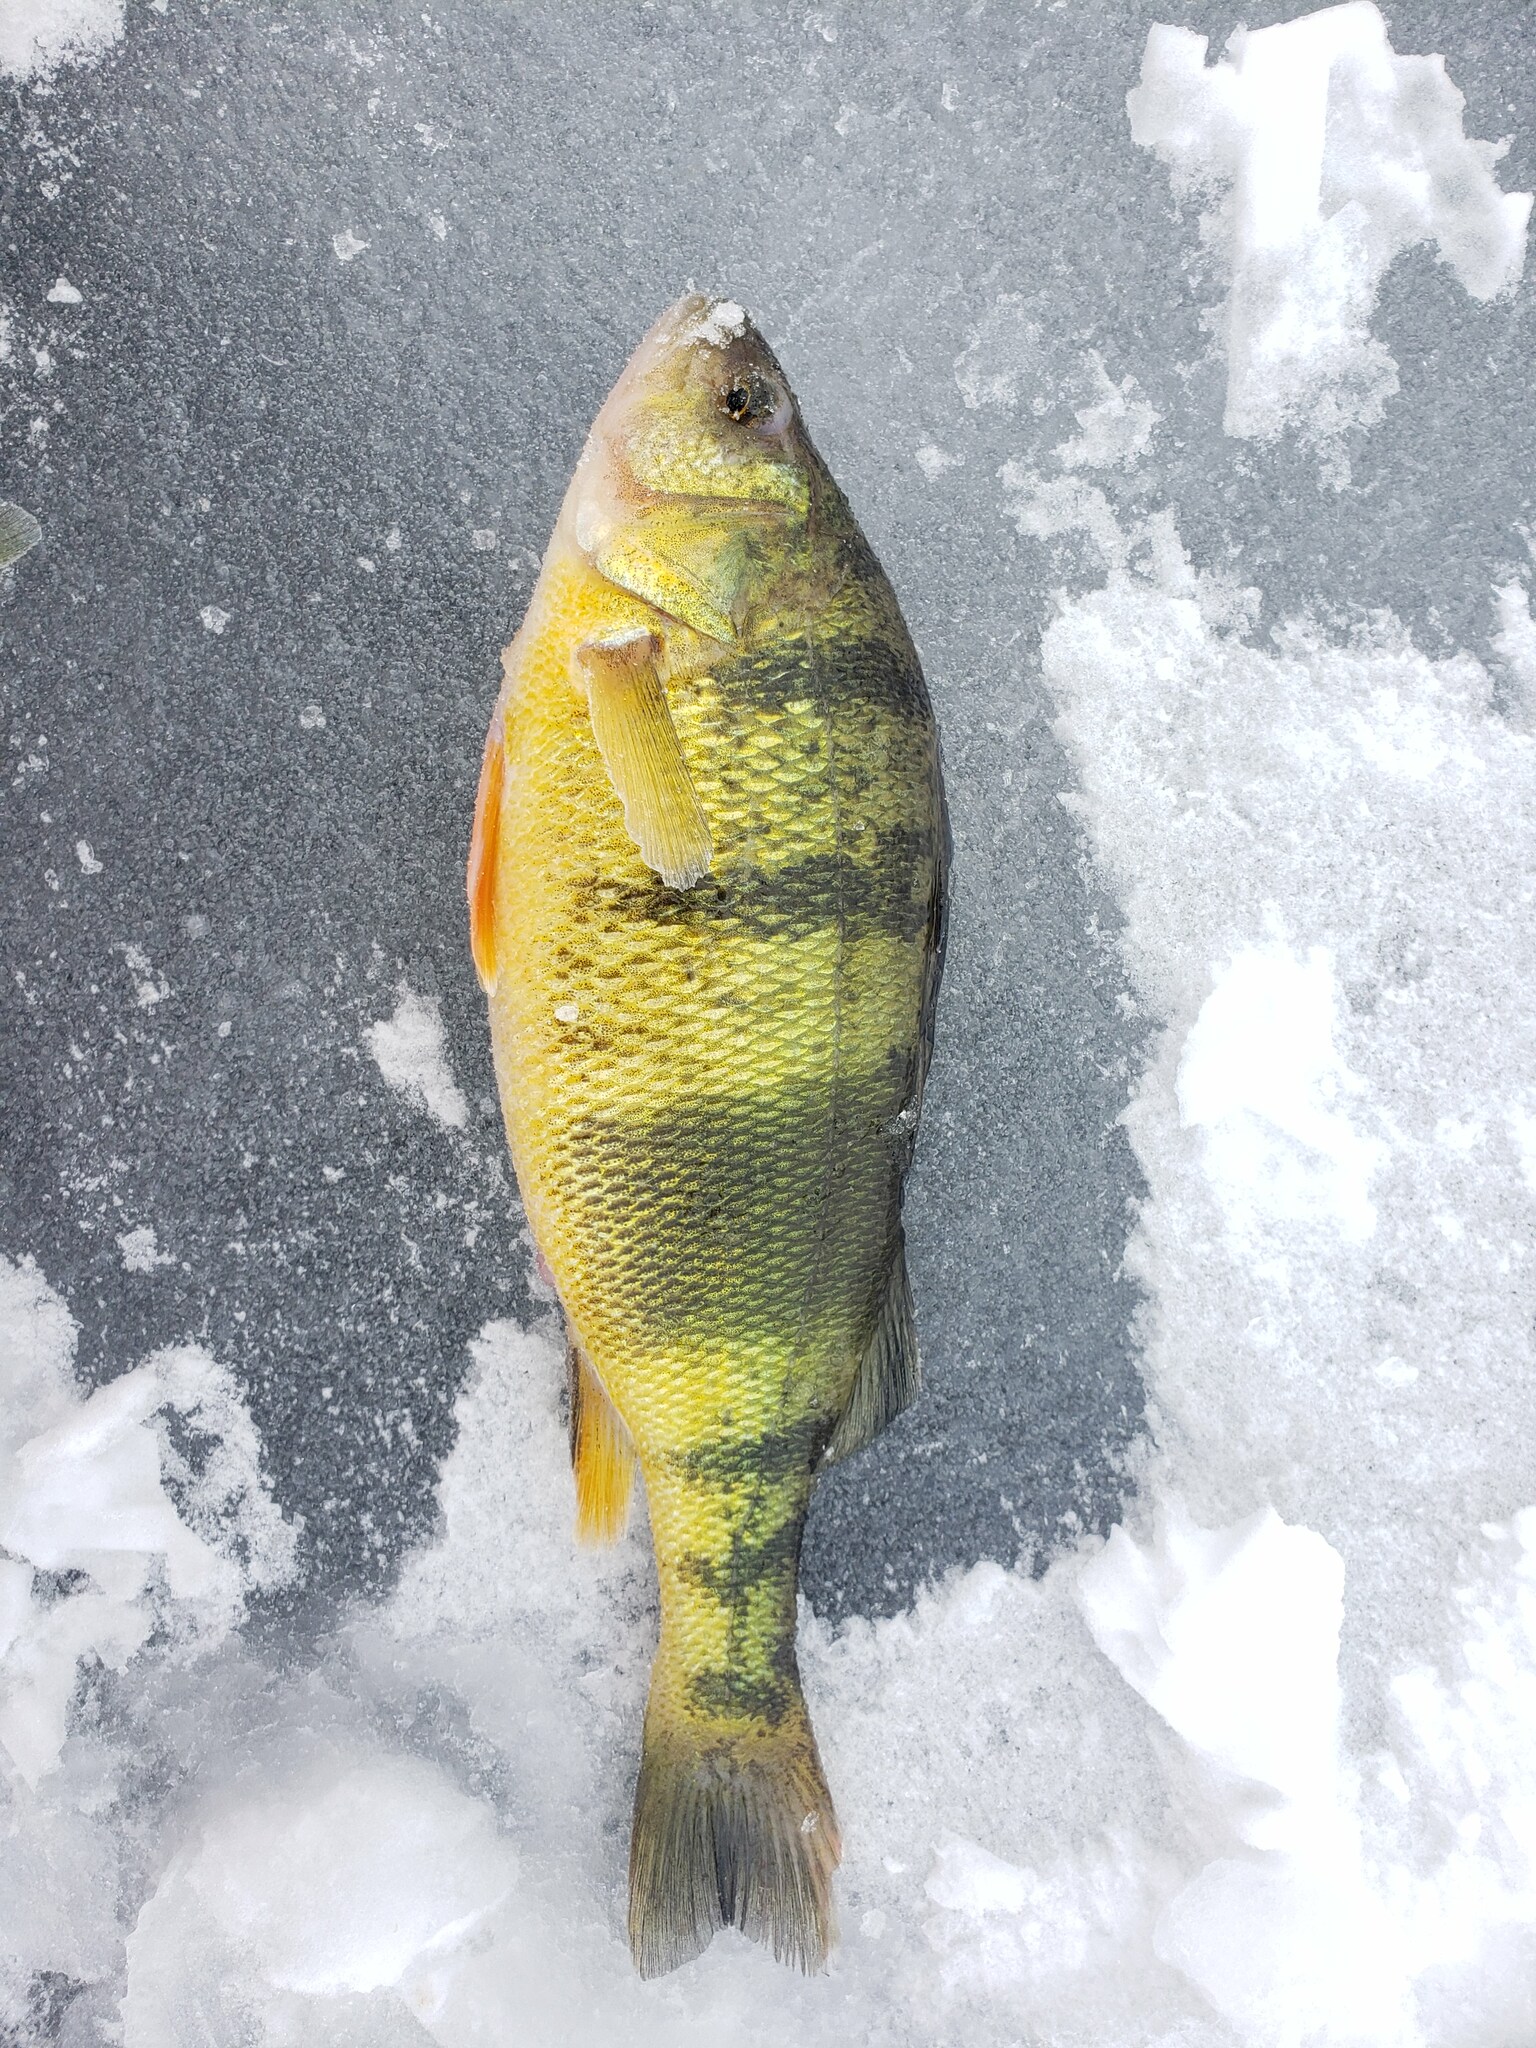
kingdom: Animalia
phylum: Chordata
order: Perciformes
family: Percidae
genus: Perca
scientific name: Perca flavescens
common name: Yellow perch
